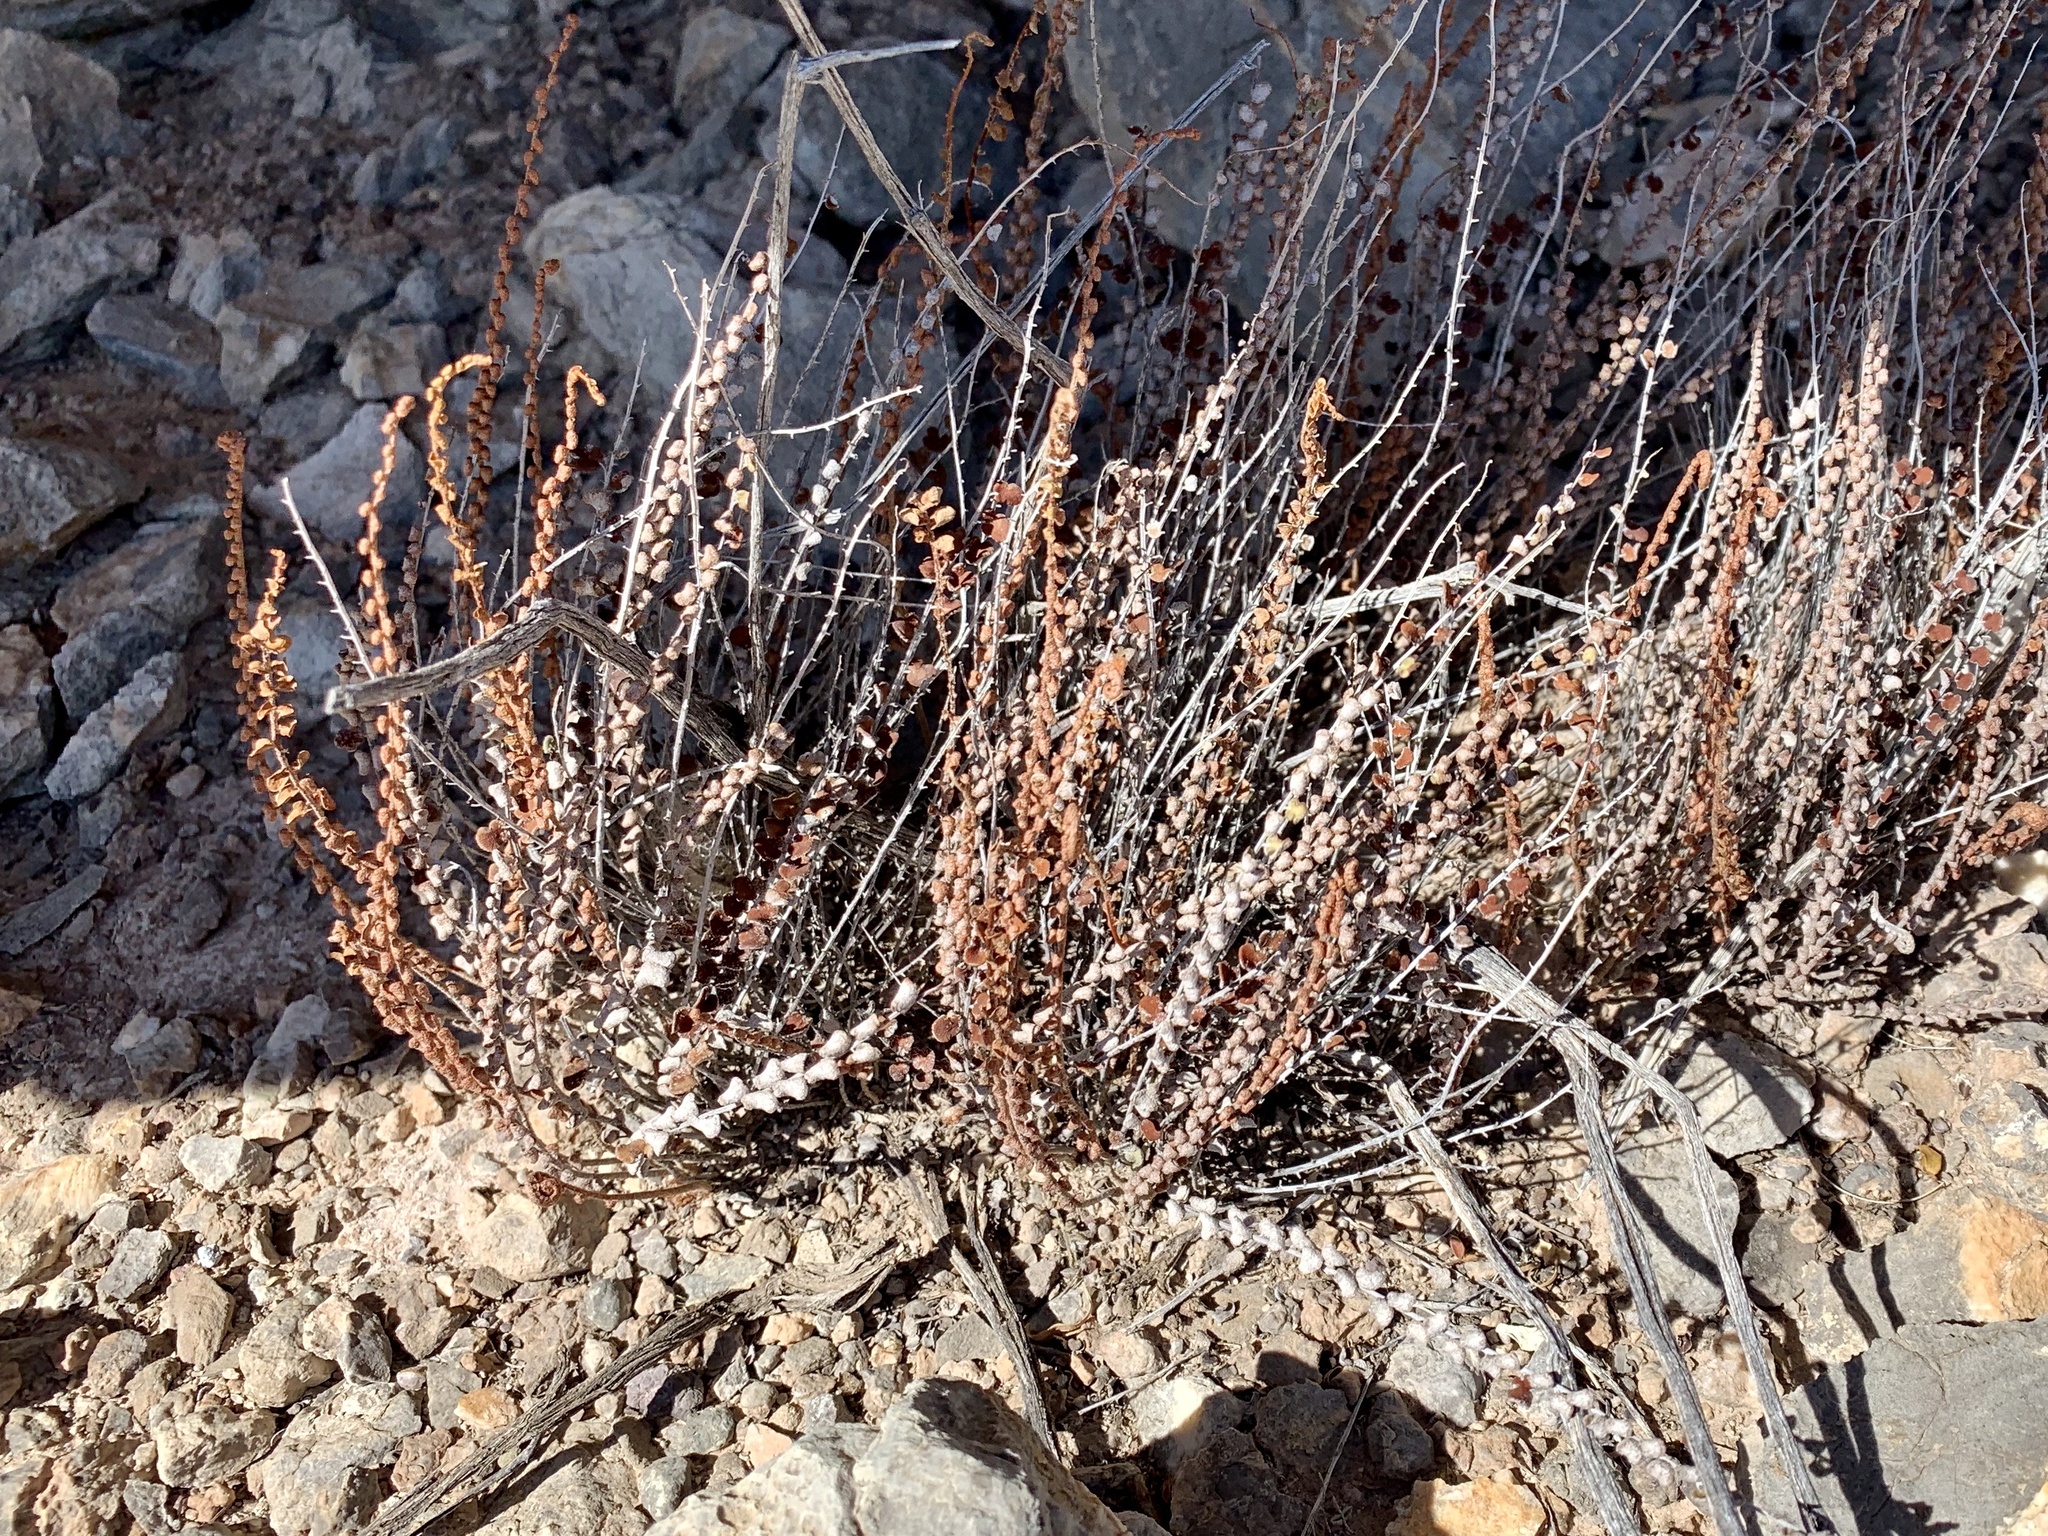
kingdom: Plantae
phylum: Tracheophyta
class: Polypodiopsida
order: Polypodiales
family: Pteridaceae
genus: Astrolepis
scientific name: Astrolepis cochisensis
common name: Scaly cloak fern
